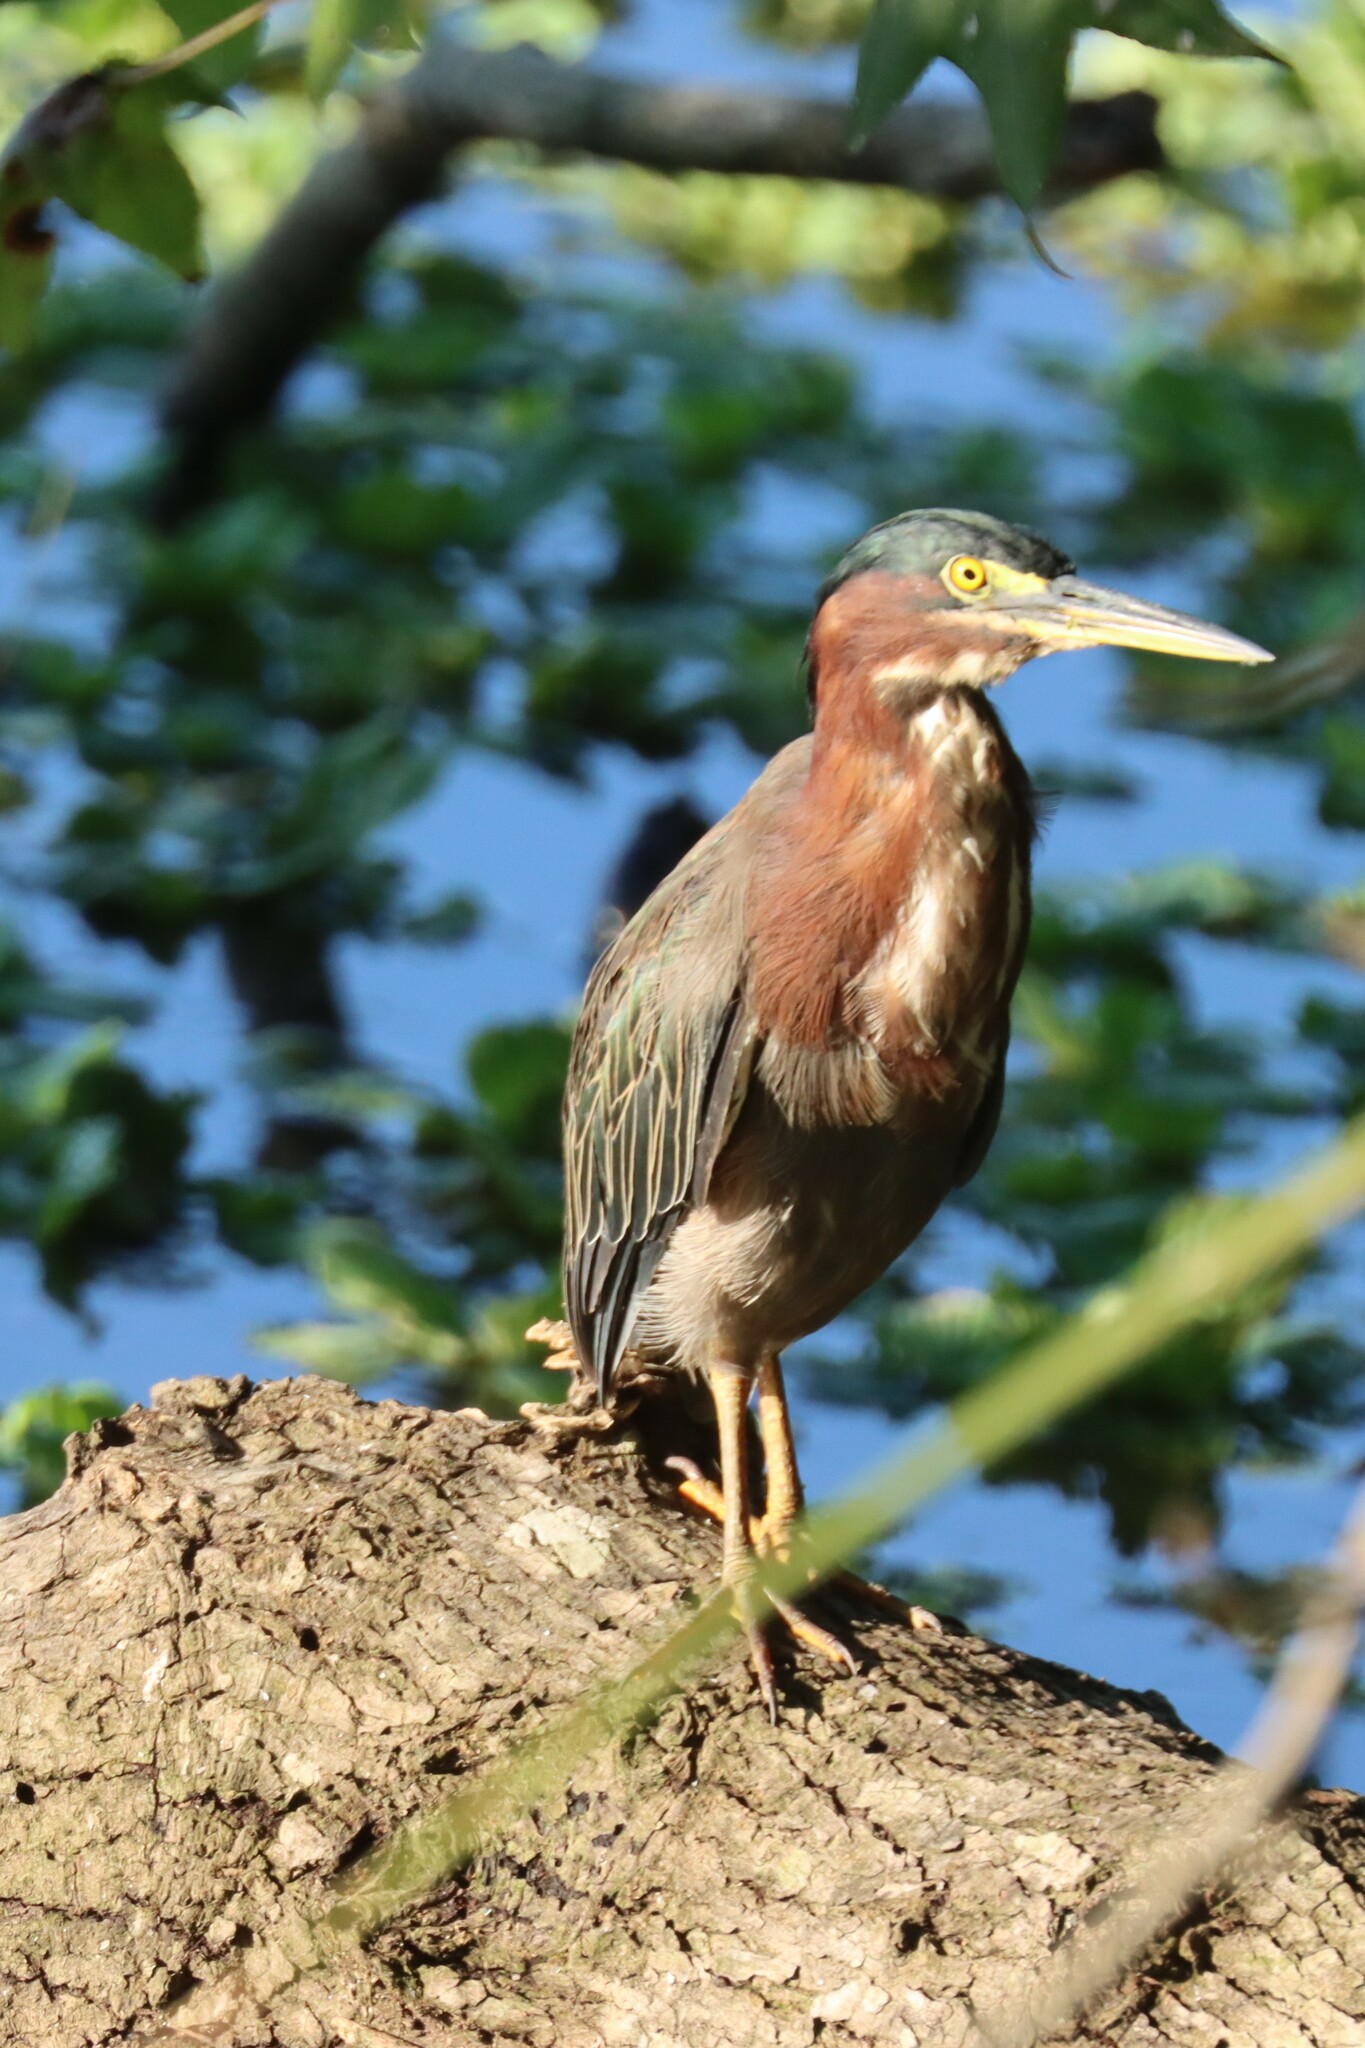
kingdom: Animalia
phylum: Chordata
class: Aves
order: Pelecaniformes
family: Ardeidae
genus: Butorides
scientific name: Butorides virescens
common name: Green heron
